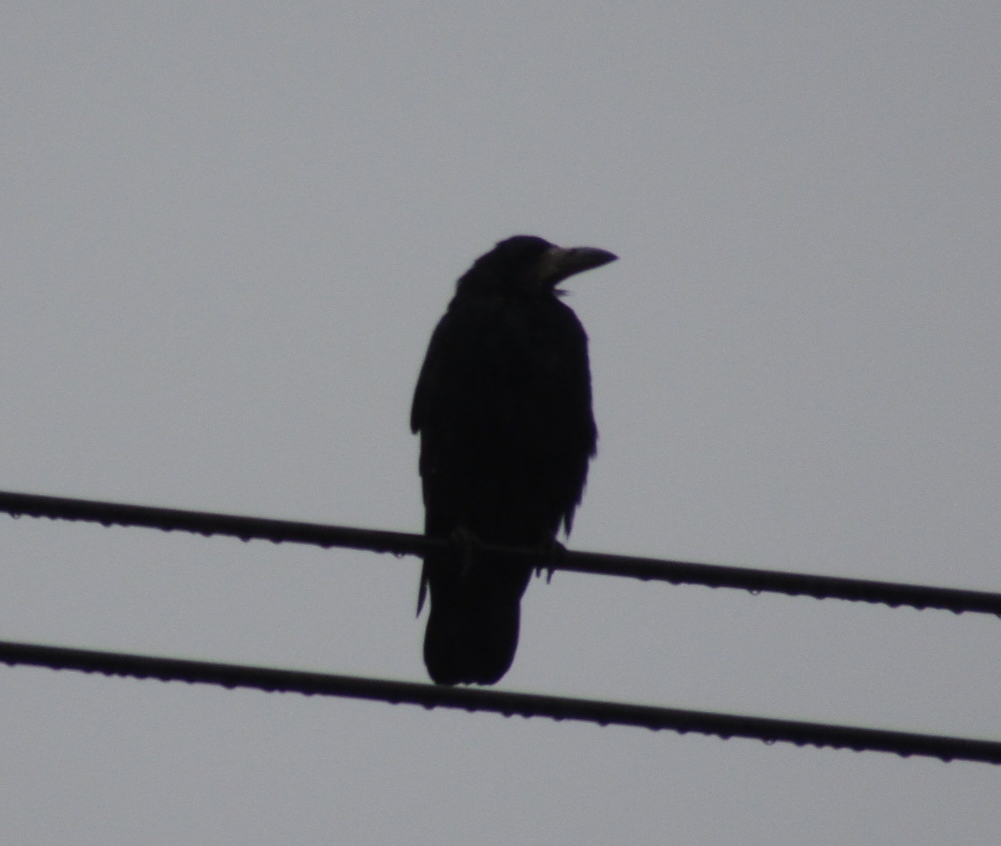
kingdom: Animalia
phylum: Chordata
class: Aves
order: Passeriformes
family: Corvidae
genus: Corvus
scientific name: Corvus frugilegus
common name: Rook
